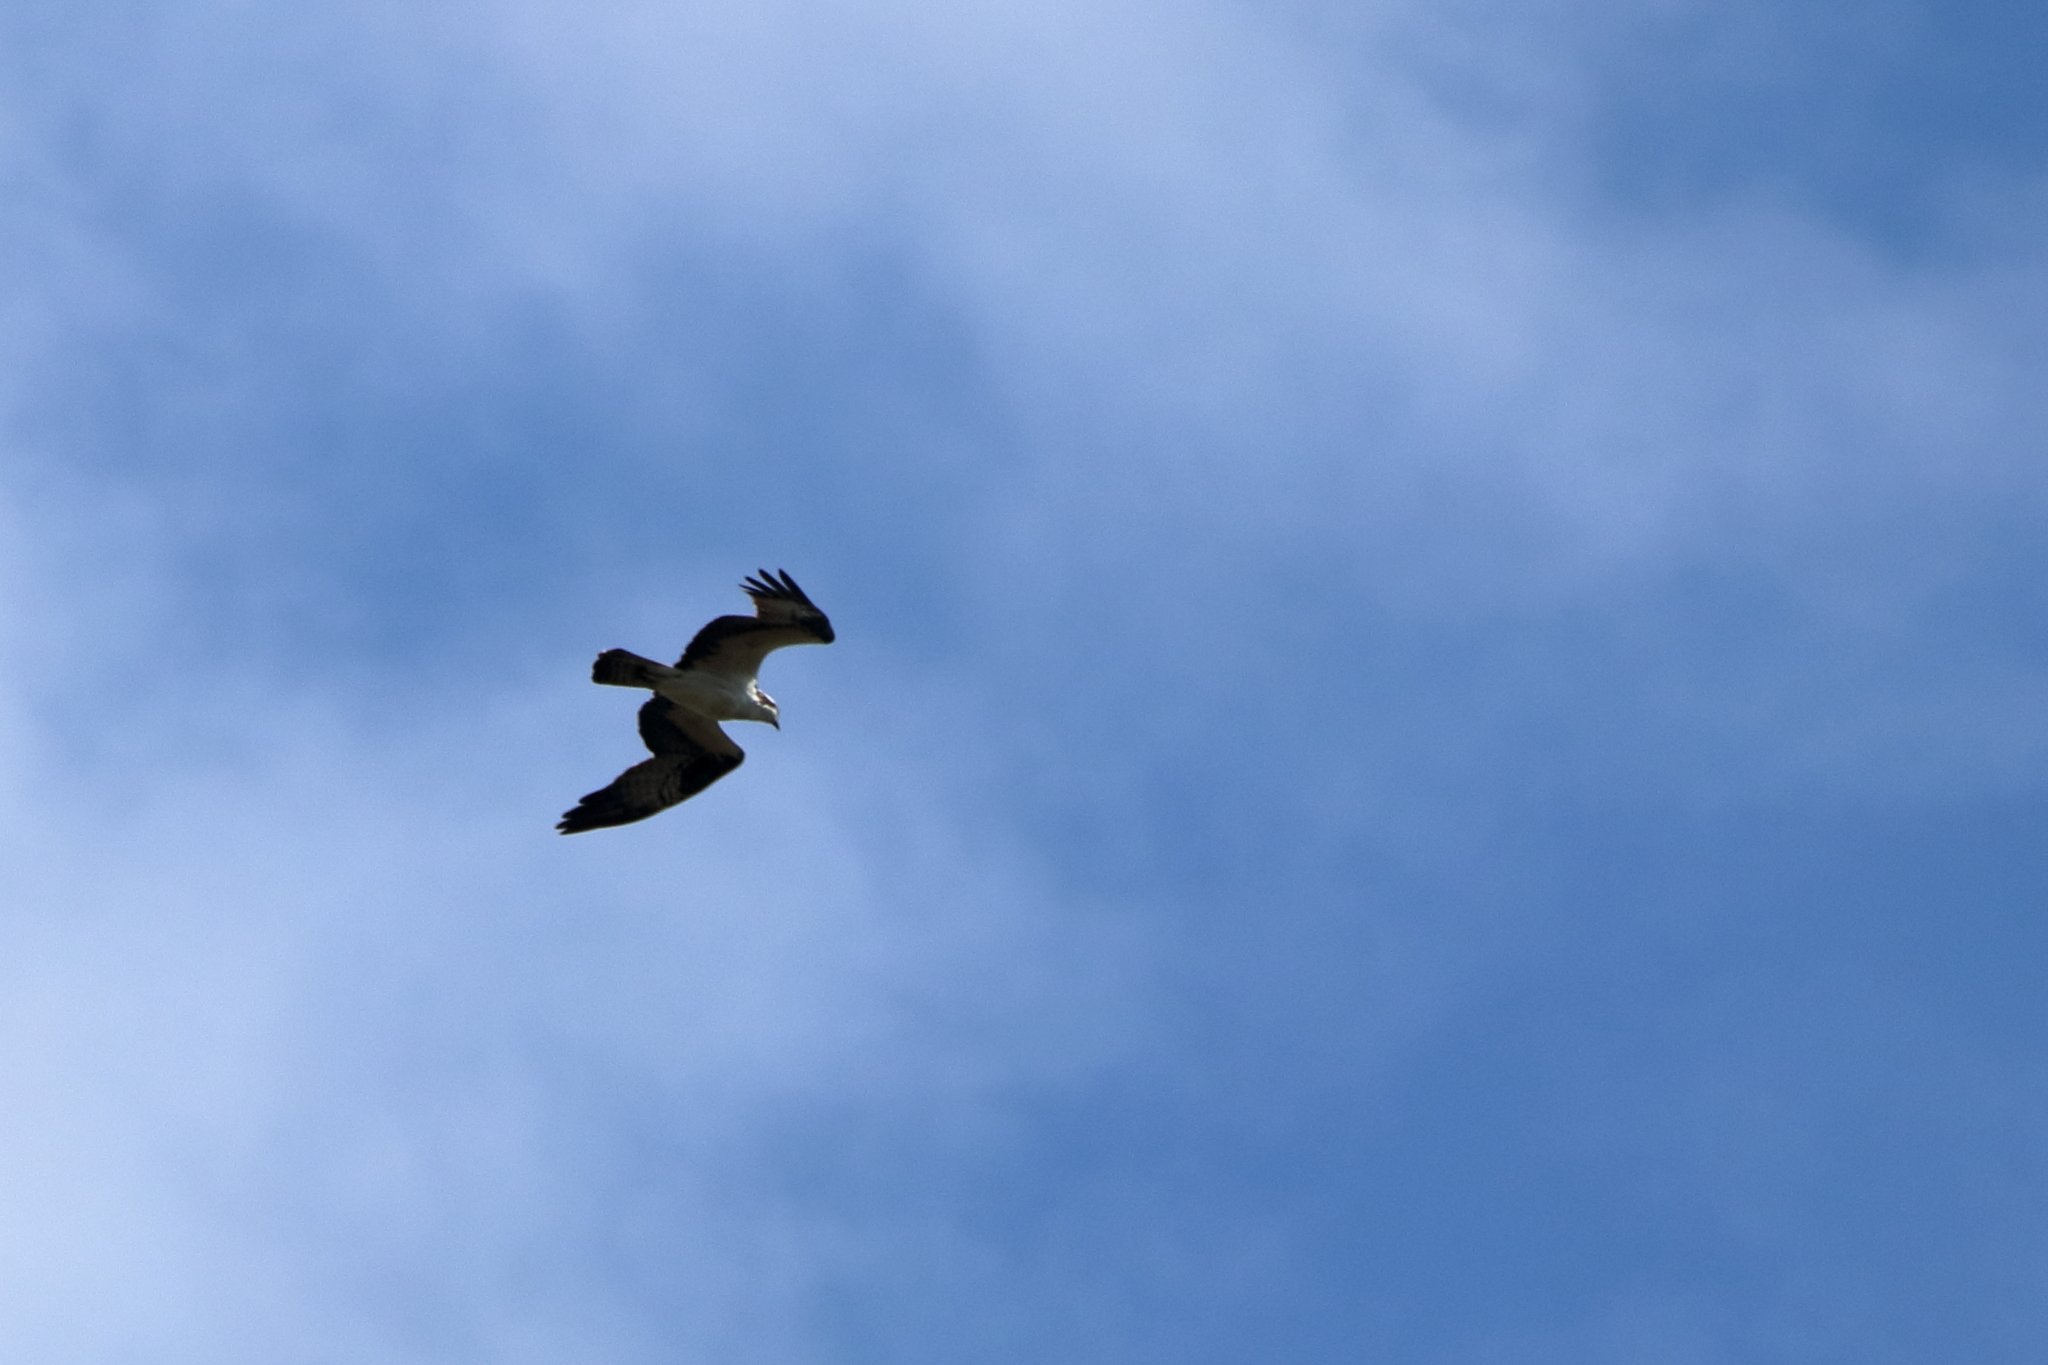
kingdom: Animalia
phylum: Chordata
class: Aves
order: Accipitriformes
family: Pandionidae
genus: Pandion
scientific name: Pandion haliaetus
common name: Osprey
